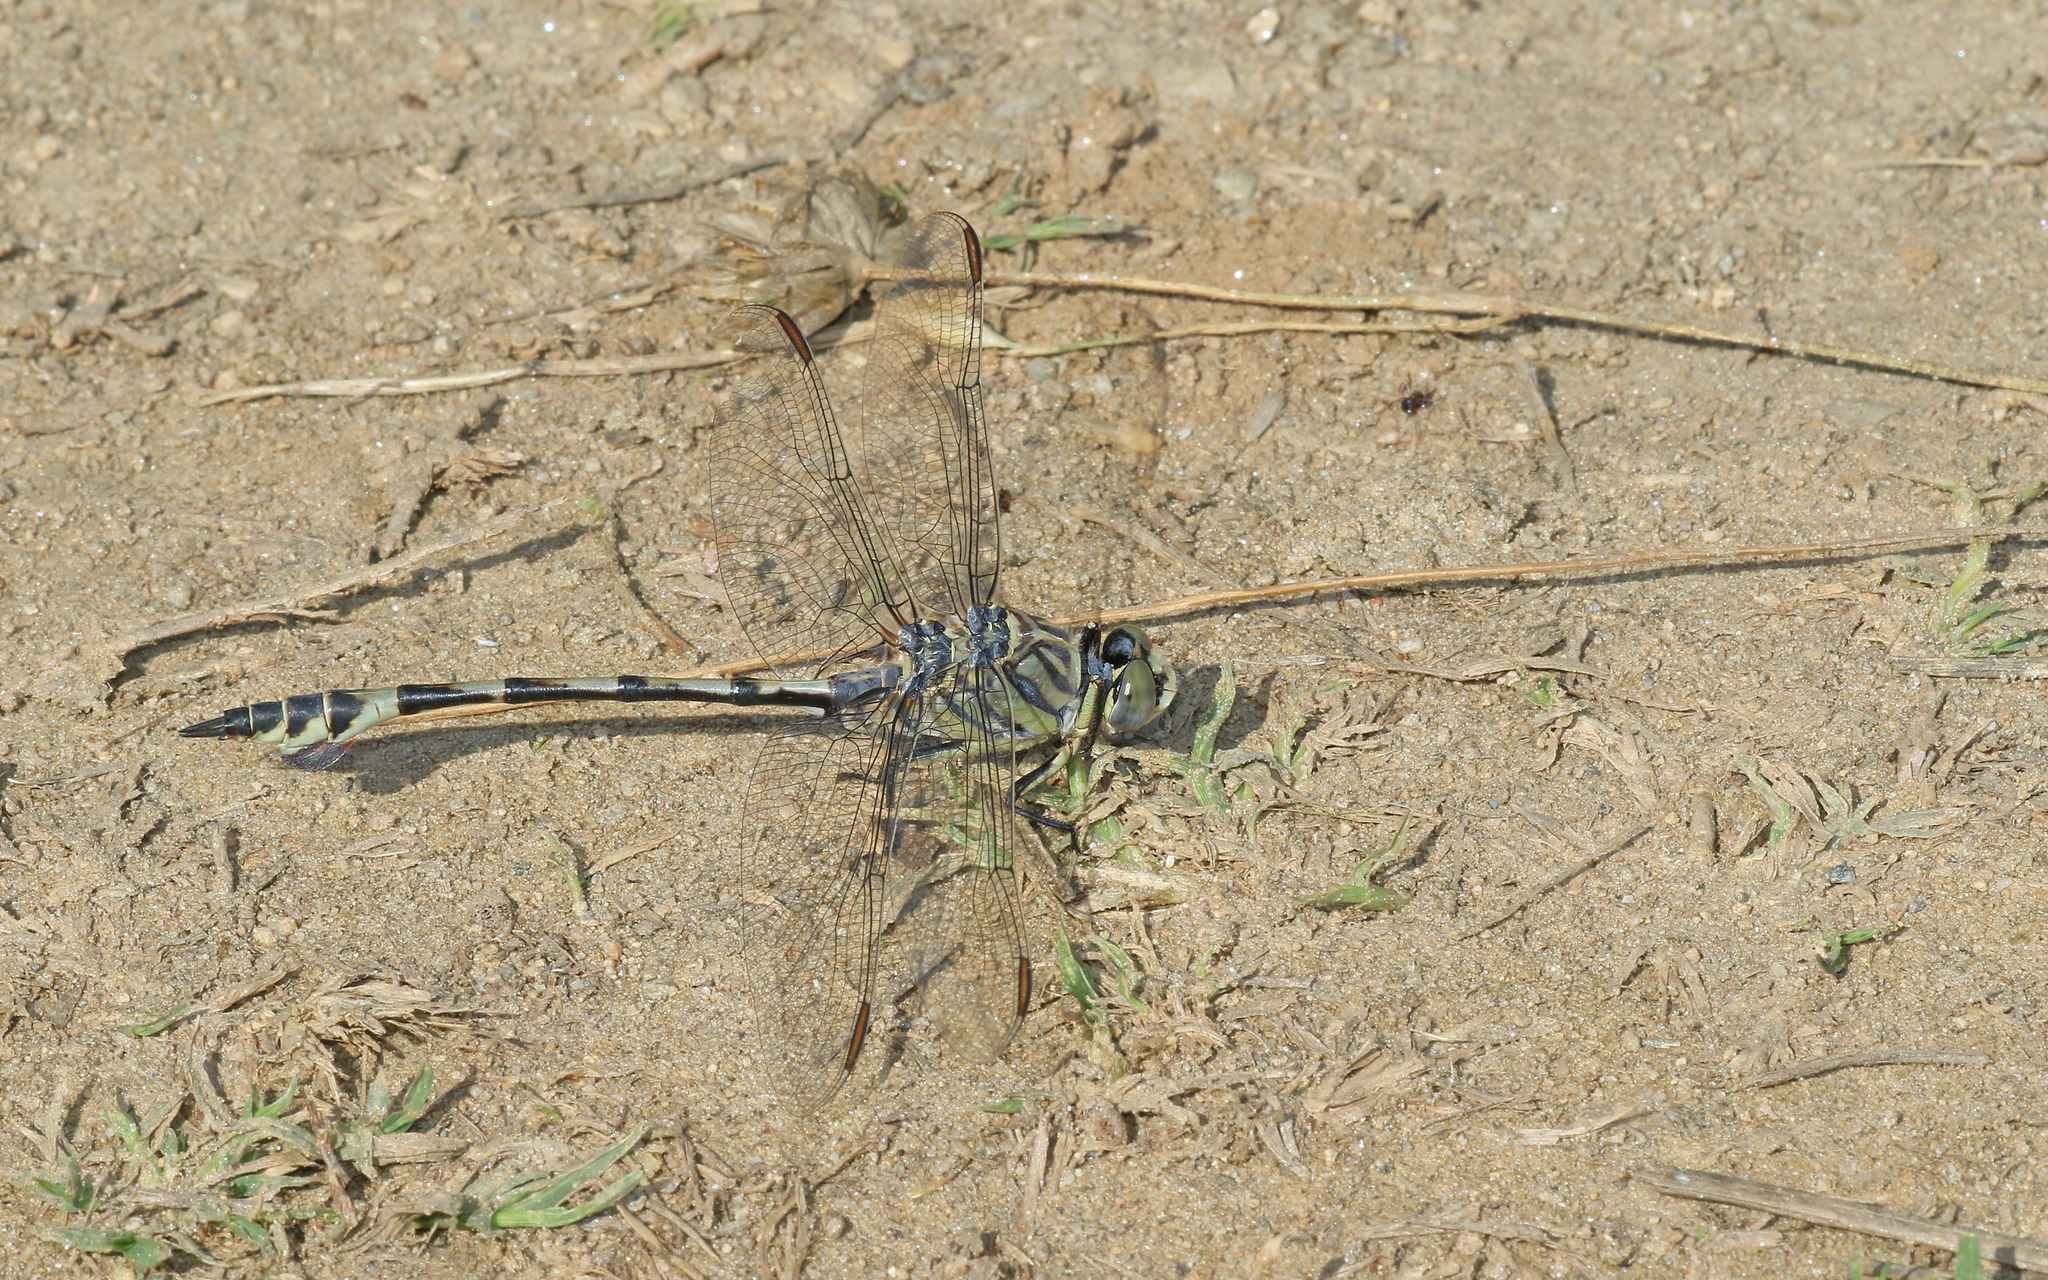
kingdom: Animalia
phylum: Arthropoda
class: Insecta
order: Odonata
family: Gomphidae
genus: Lindenia
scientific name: Lindenia tetraphylla
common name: Bladetail
